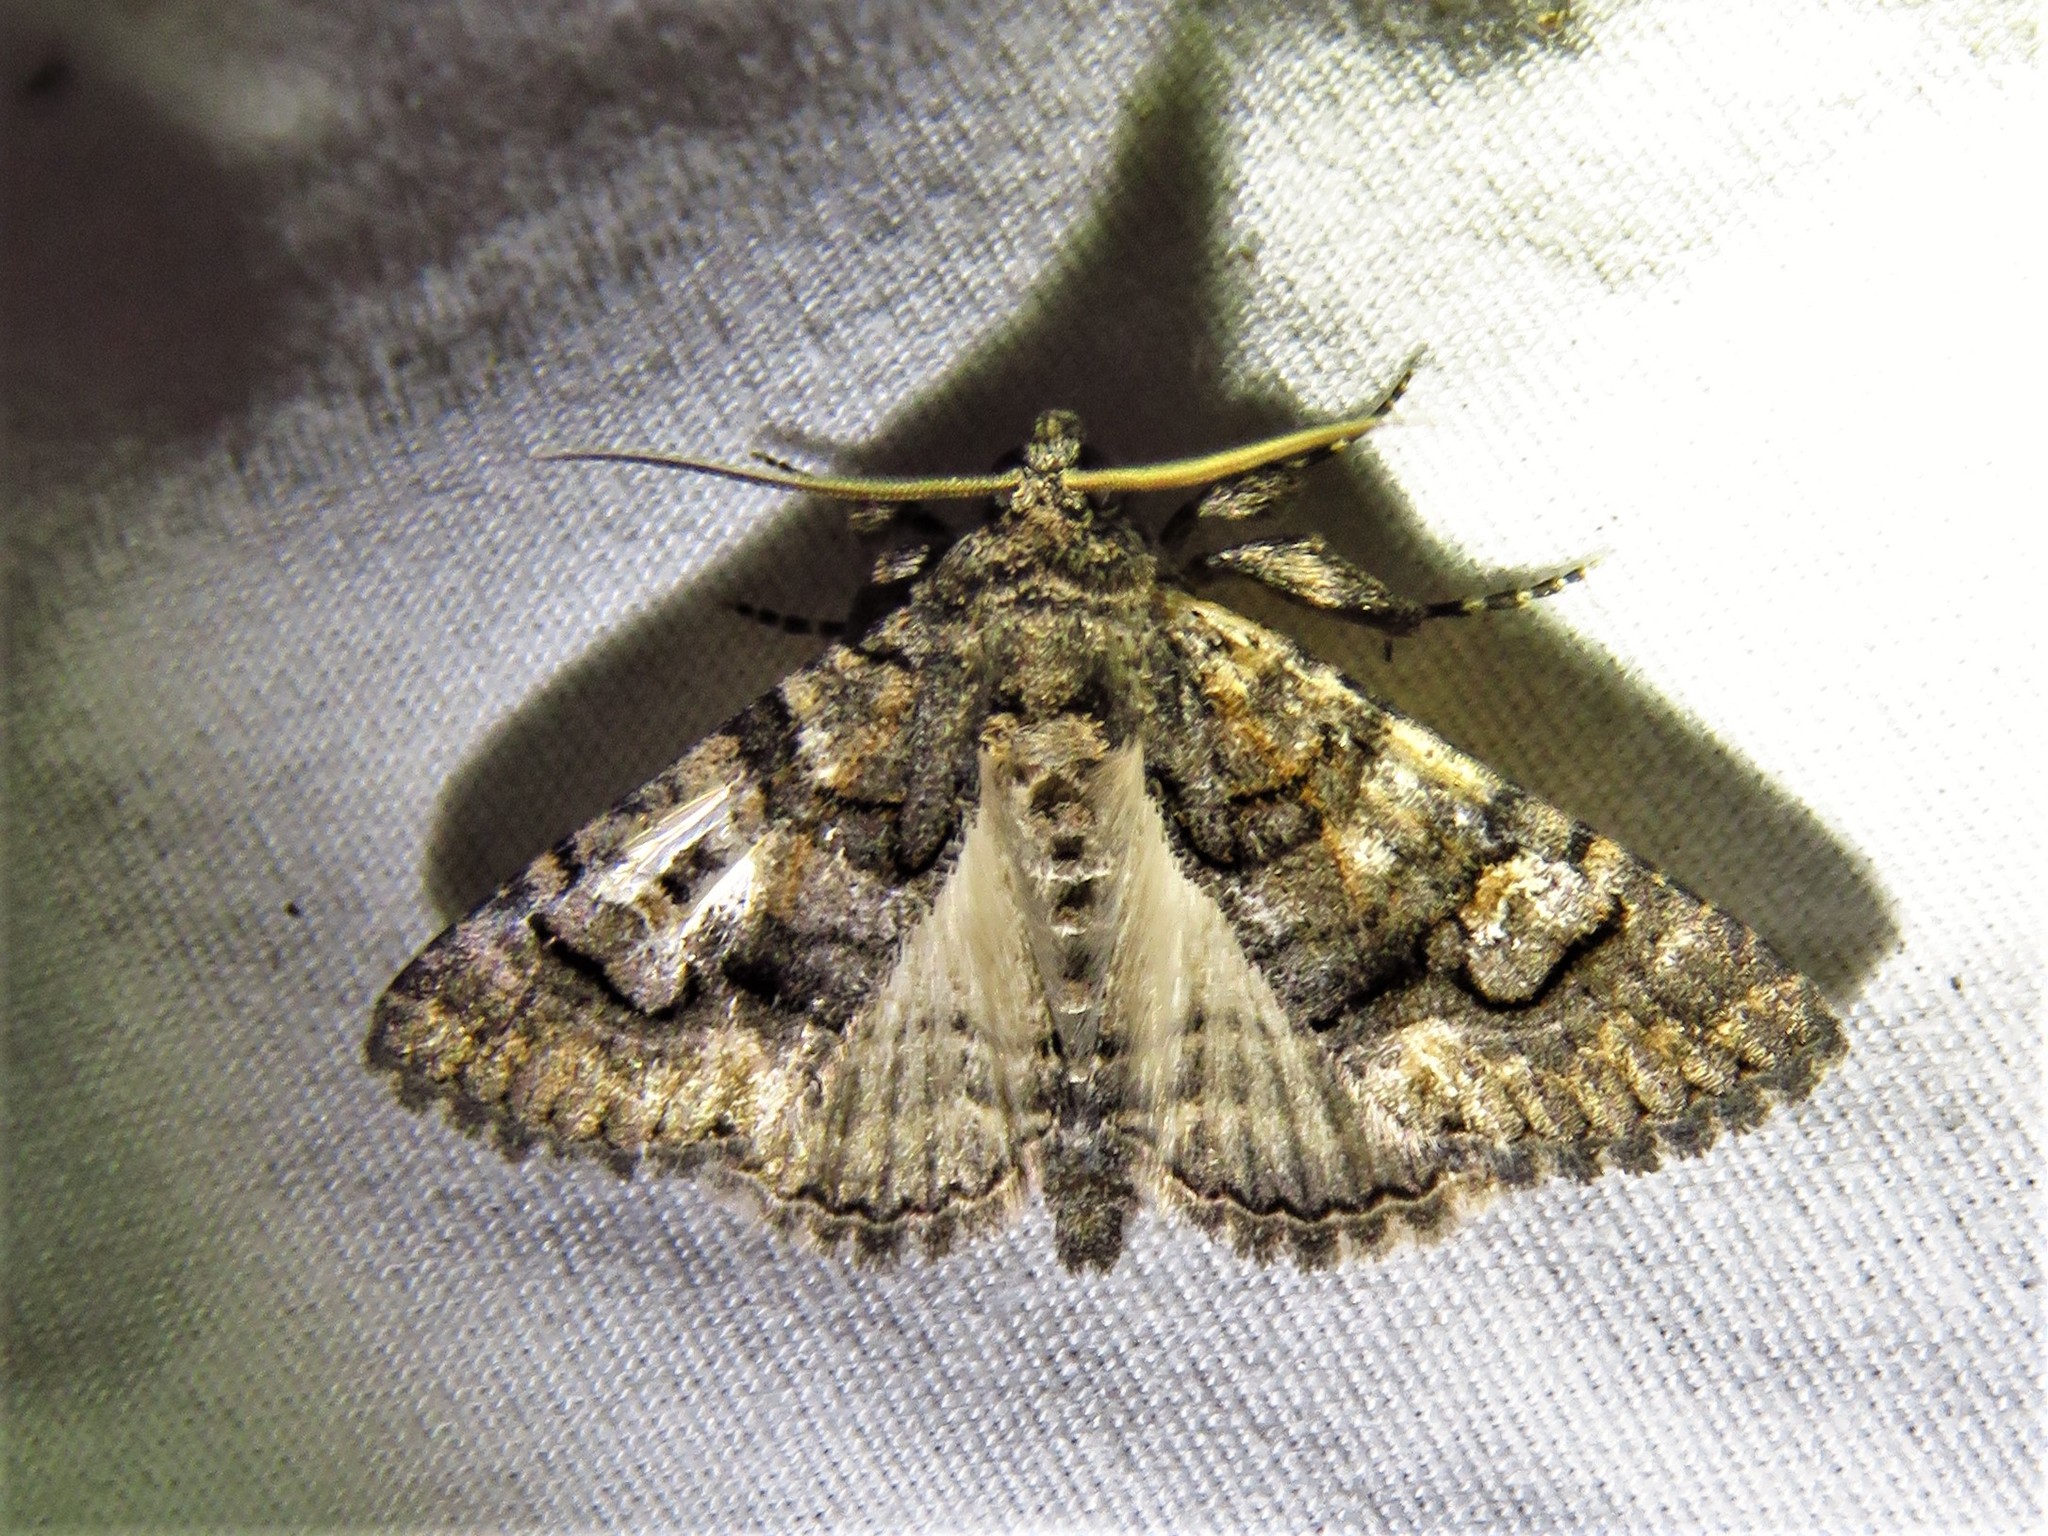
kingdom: Animalia
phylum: Arthropoda
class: Insecta
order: Lepidoptera
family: Erebidae
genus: Elousa
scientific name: Elousa mima
